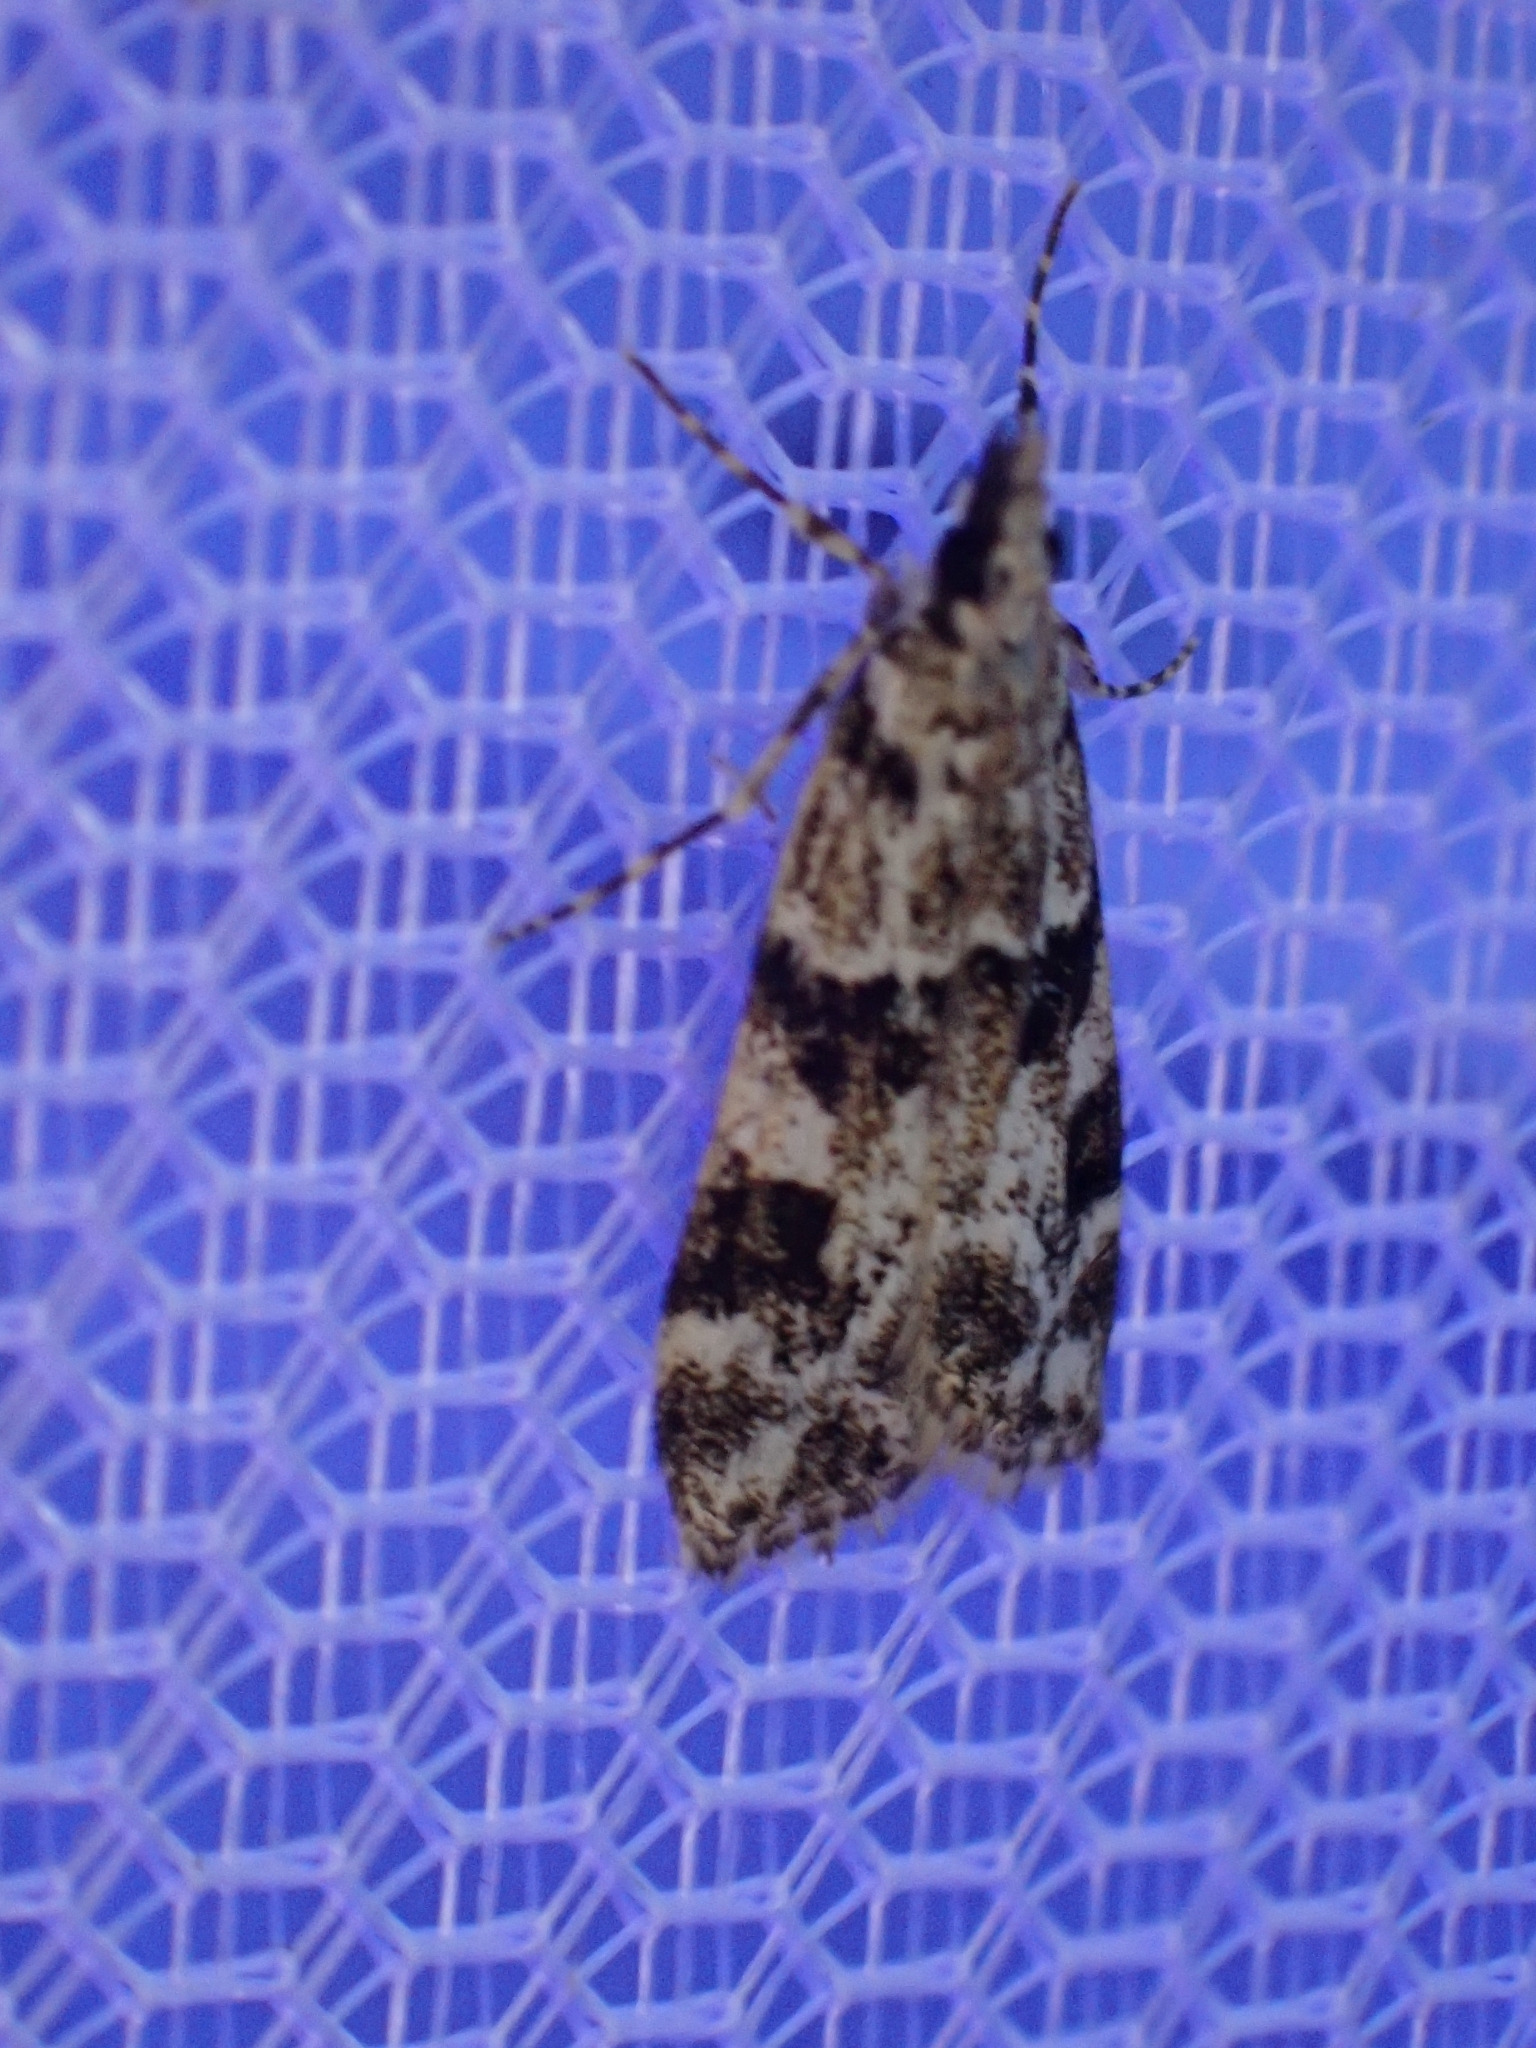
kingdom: Animalia
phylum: Arthropoda
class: Insecta
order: Lepidoptera
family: Crambidae
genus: Eudonia
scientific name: Eudonia delunella
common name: Pied grey
